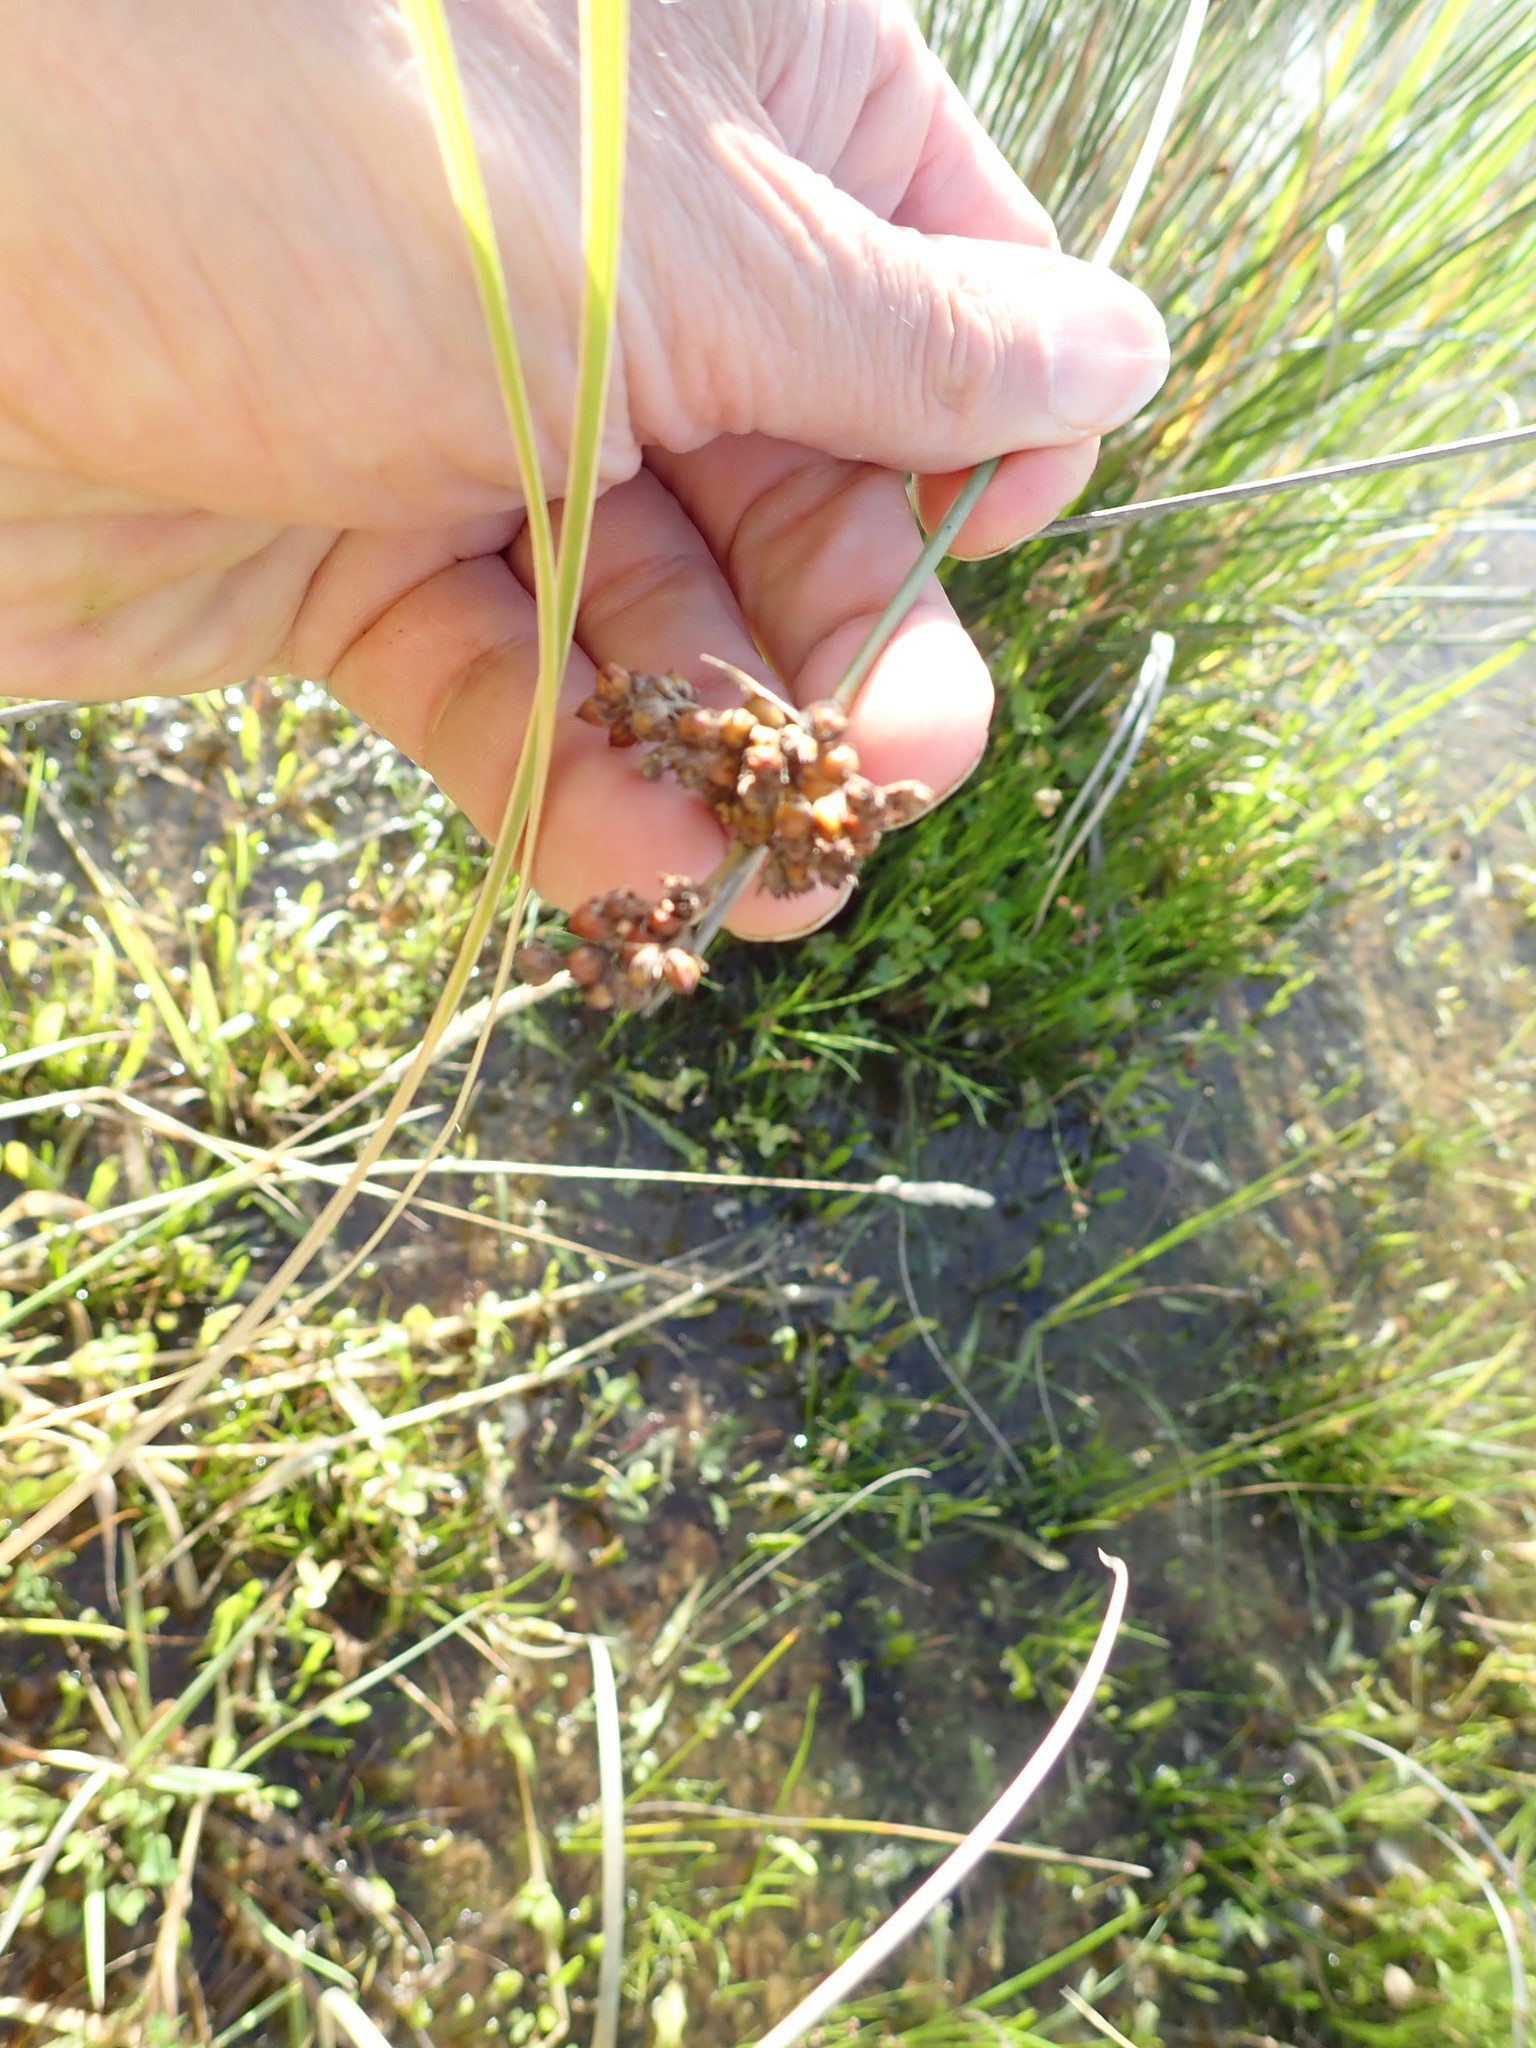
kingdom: Plantae
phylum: Tracheophyta
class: Liliopsida
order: Poales
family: Juncaceae
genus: Juncus
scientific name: Juncus acutus
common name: Sharp rush
